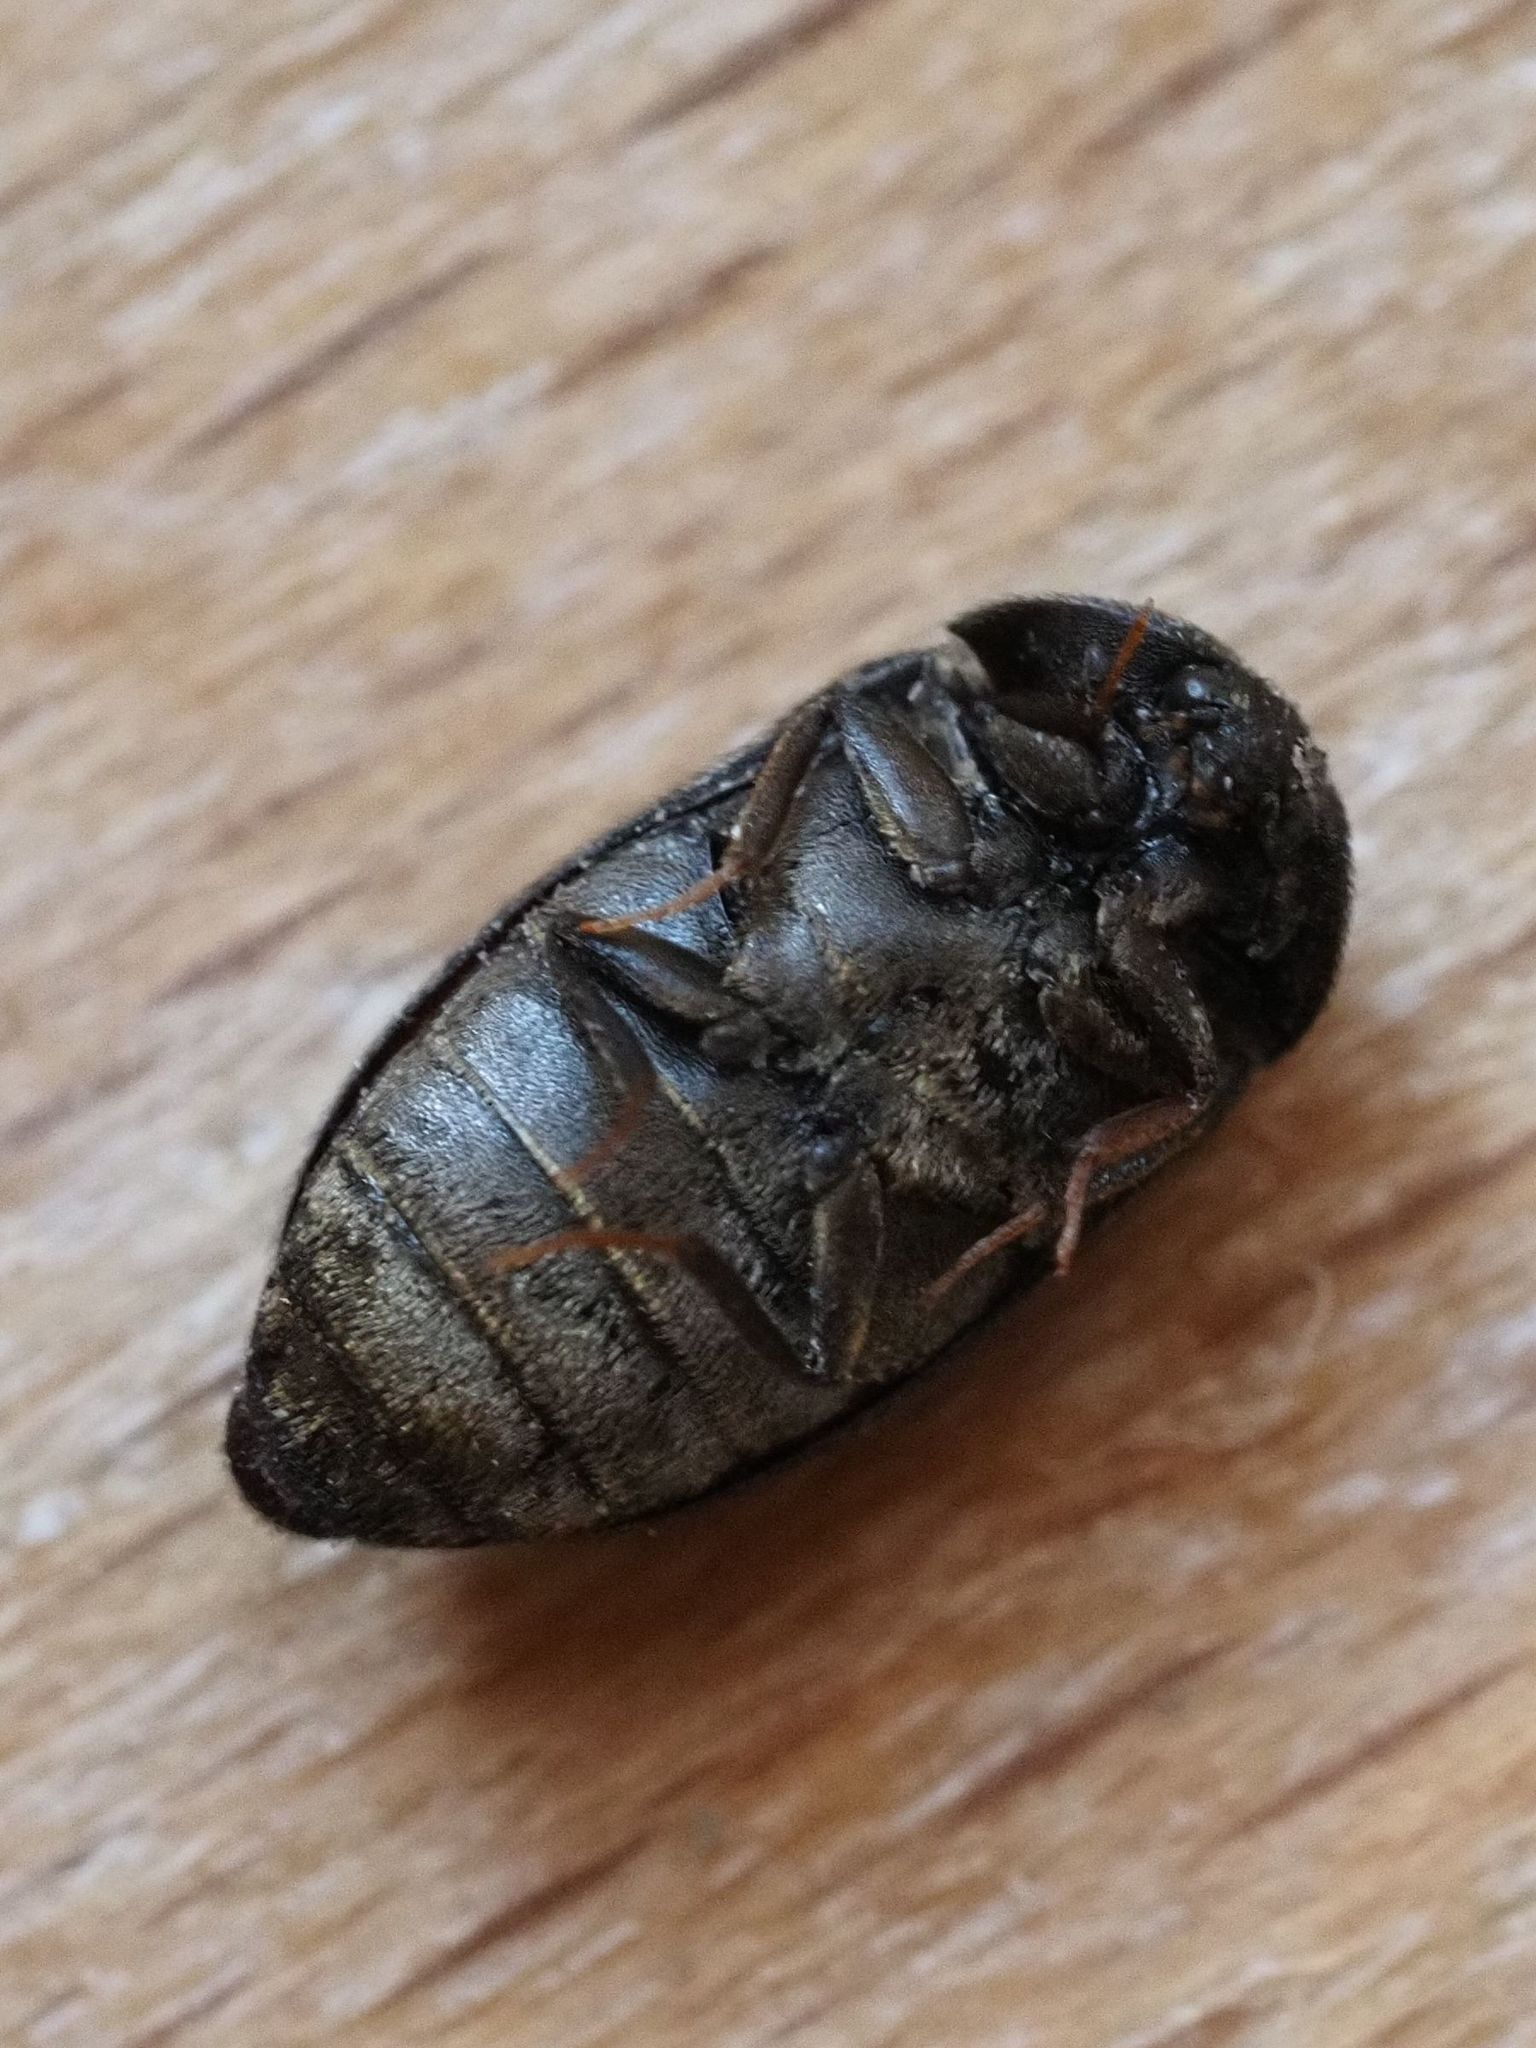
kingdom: Animalia
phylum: Arthropoda
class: Insecta
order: Coleoptera
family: Dermestidae
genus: Attagenus
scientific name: Attagenus pellio
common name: Two-spotted carpet beetle
